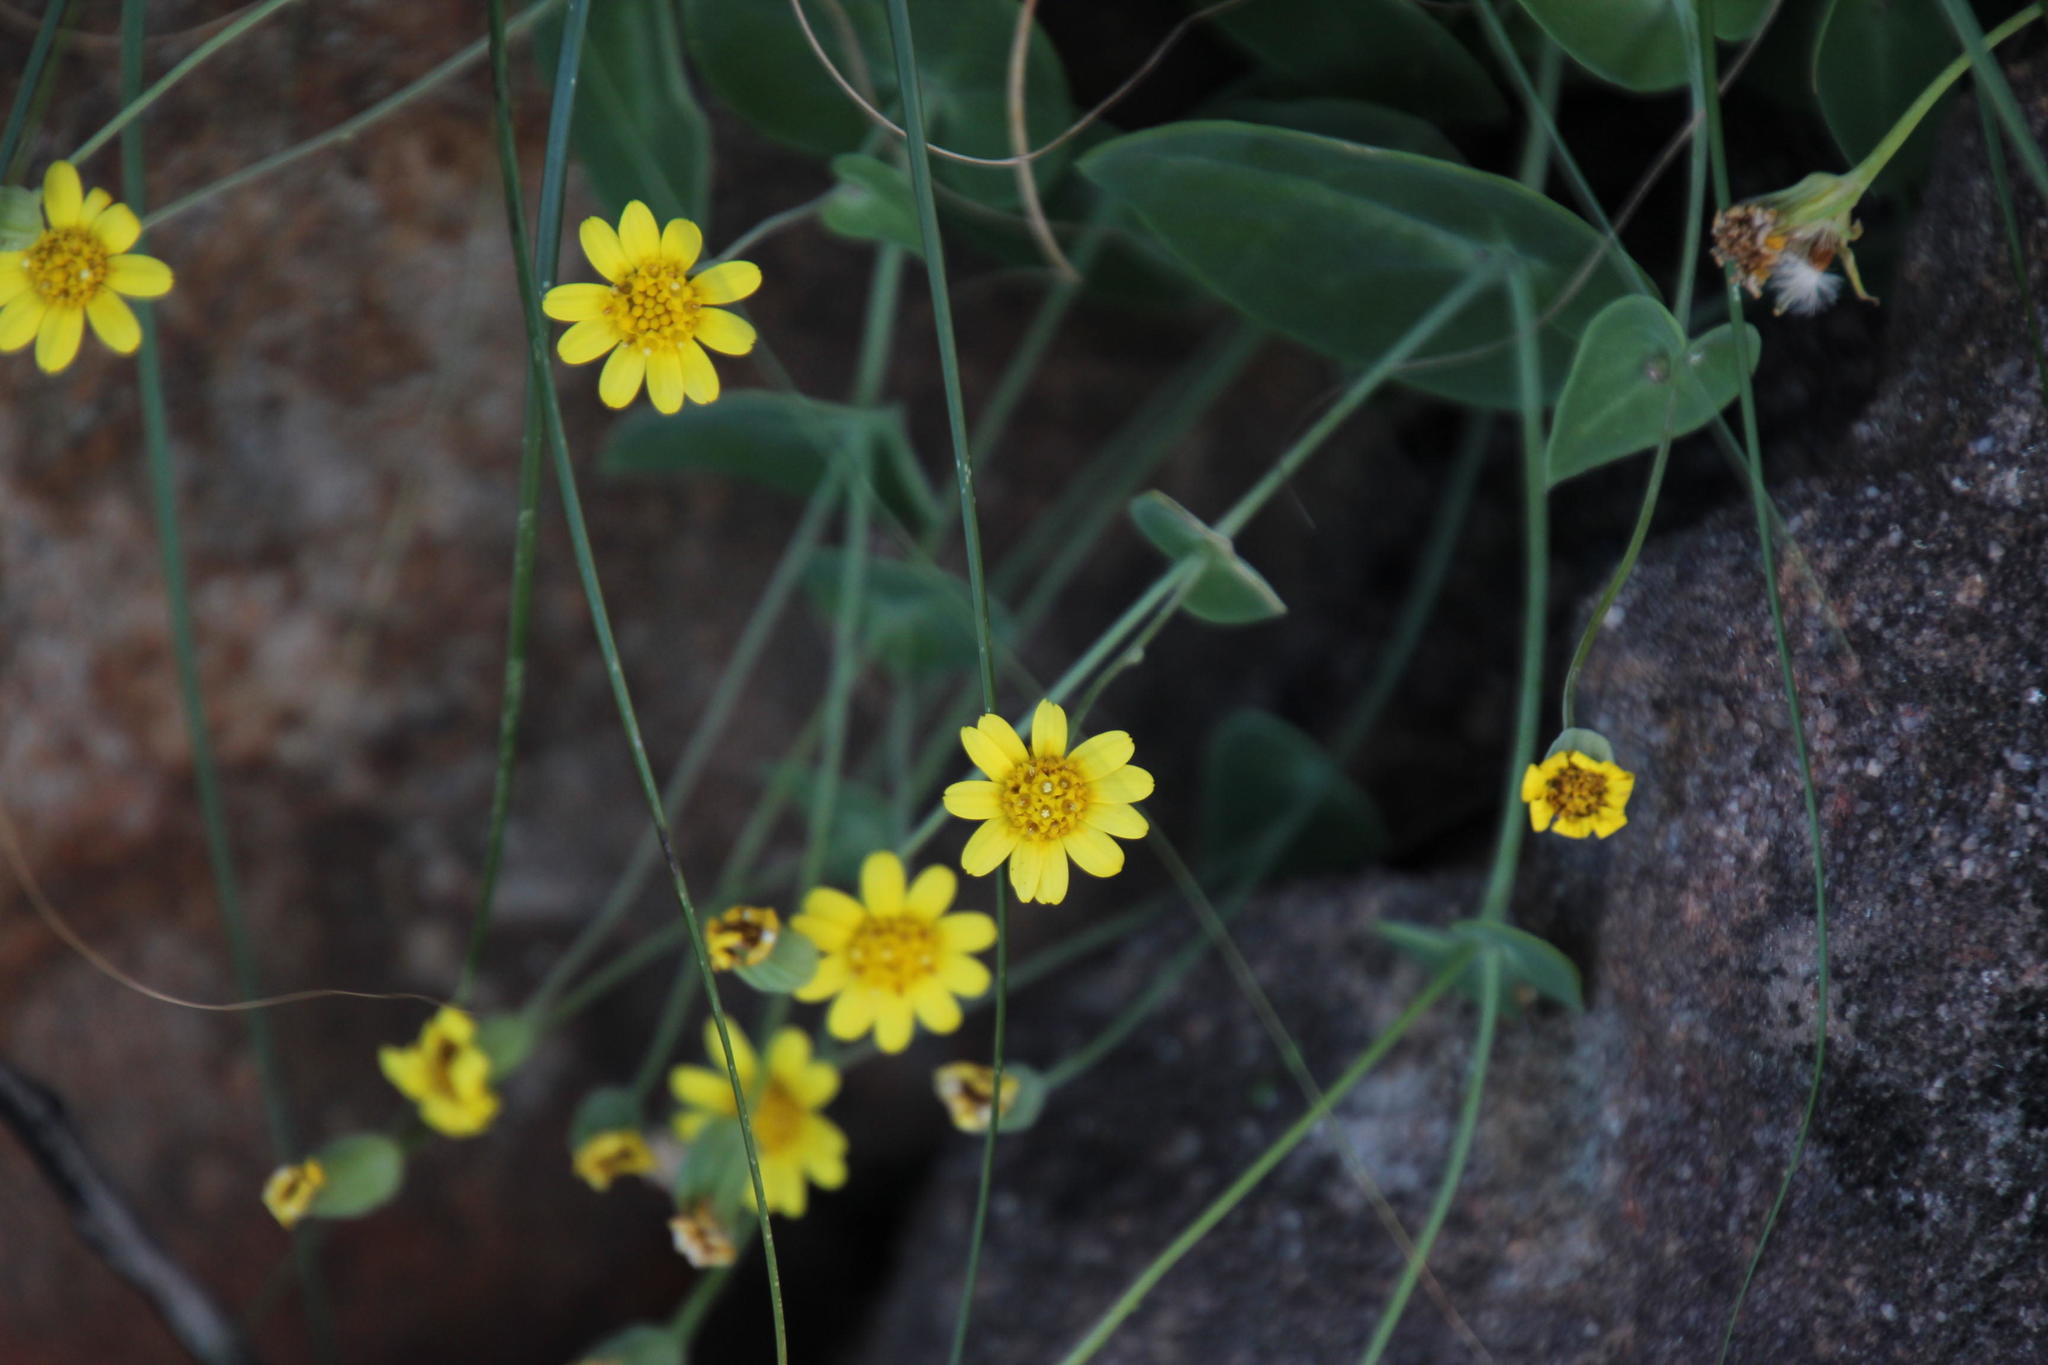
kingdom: Plantae
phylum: Tracheophyta
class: Magnoliopsida
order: Asterales
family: Asteraceae
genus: Othonna
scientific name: Othonna perfoliata
